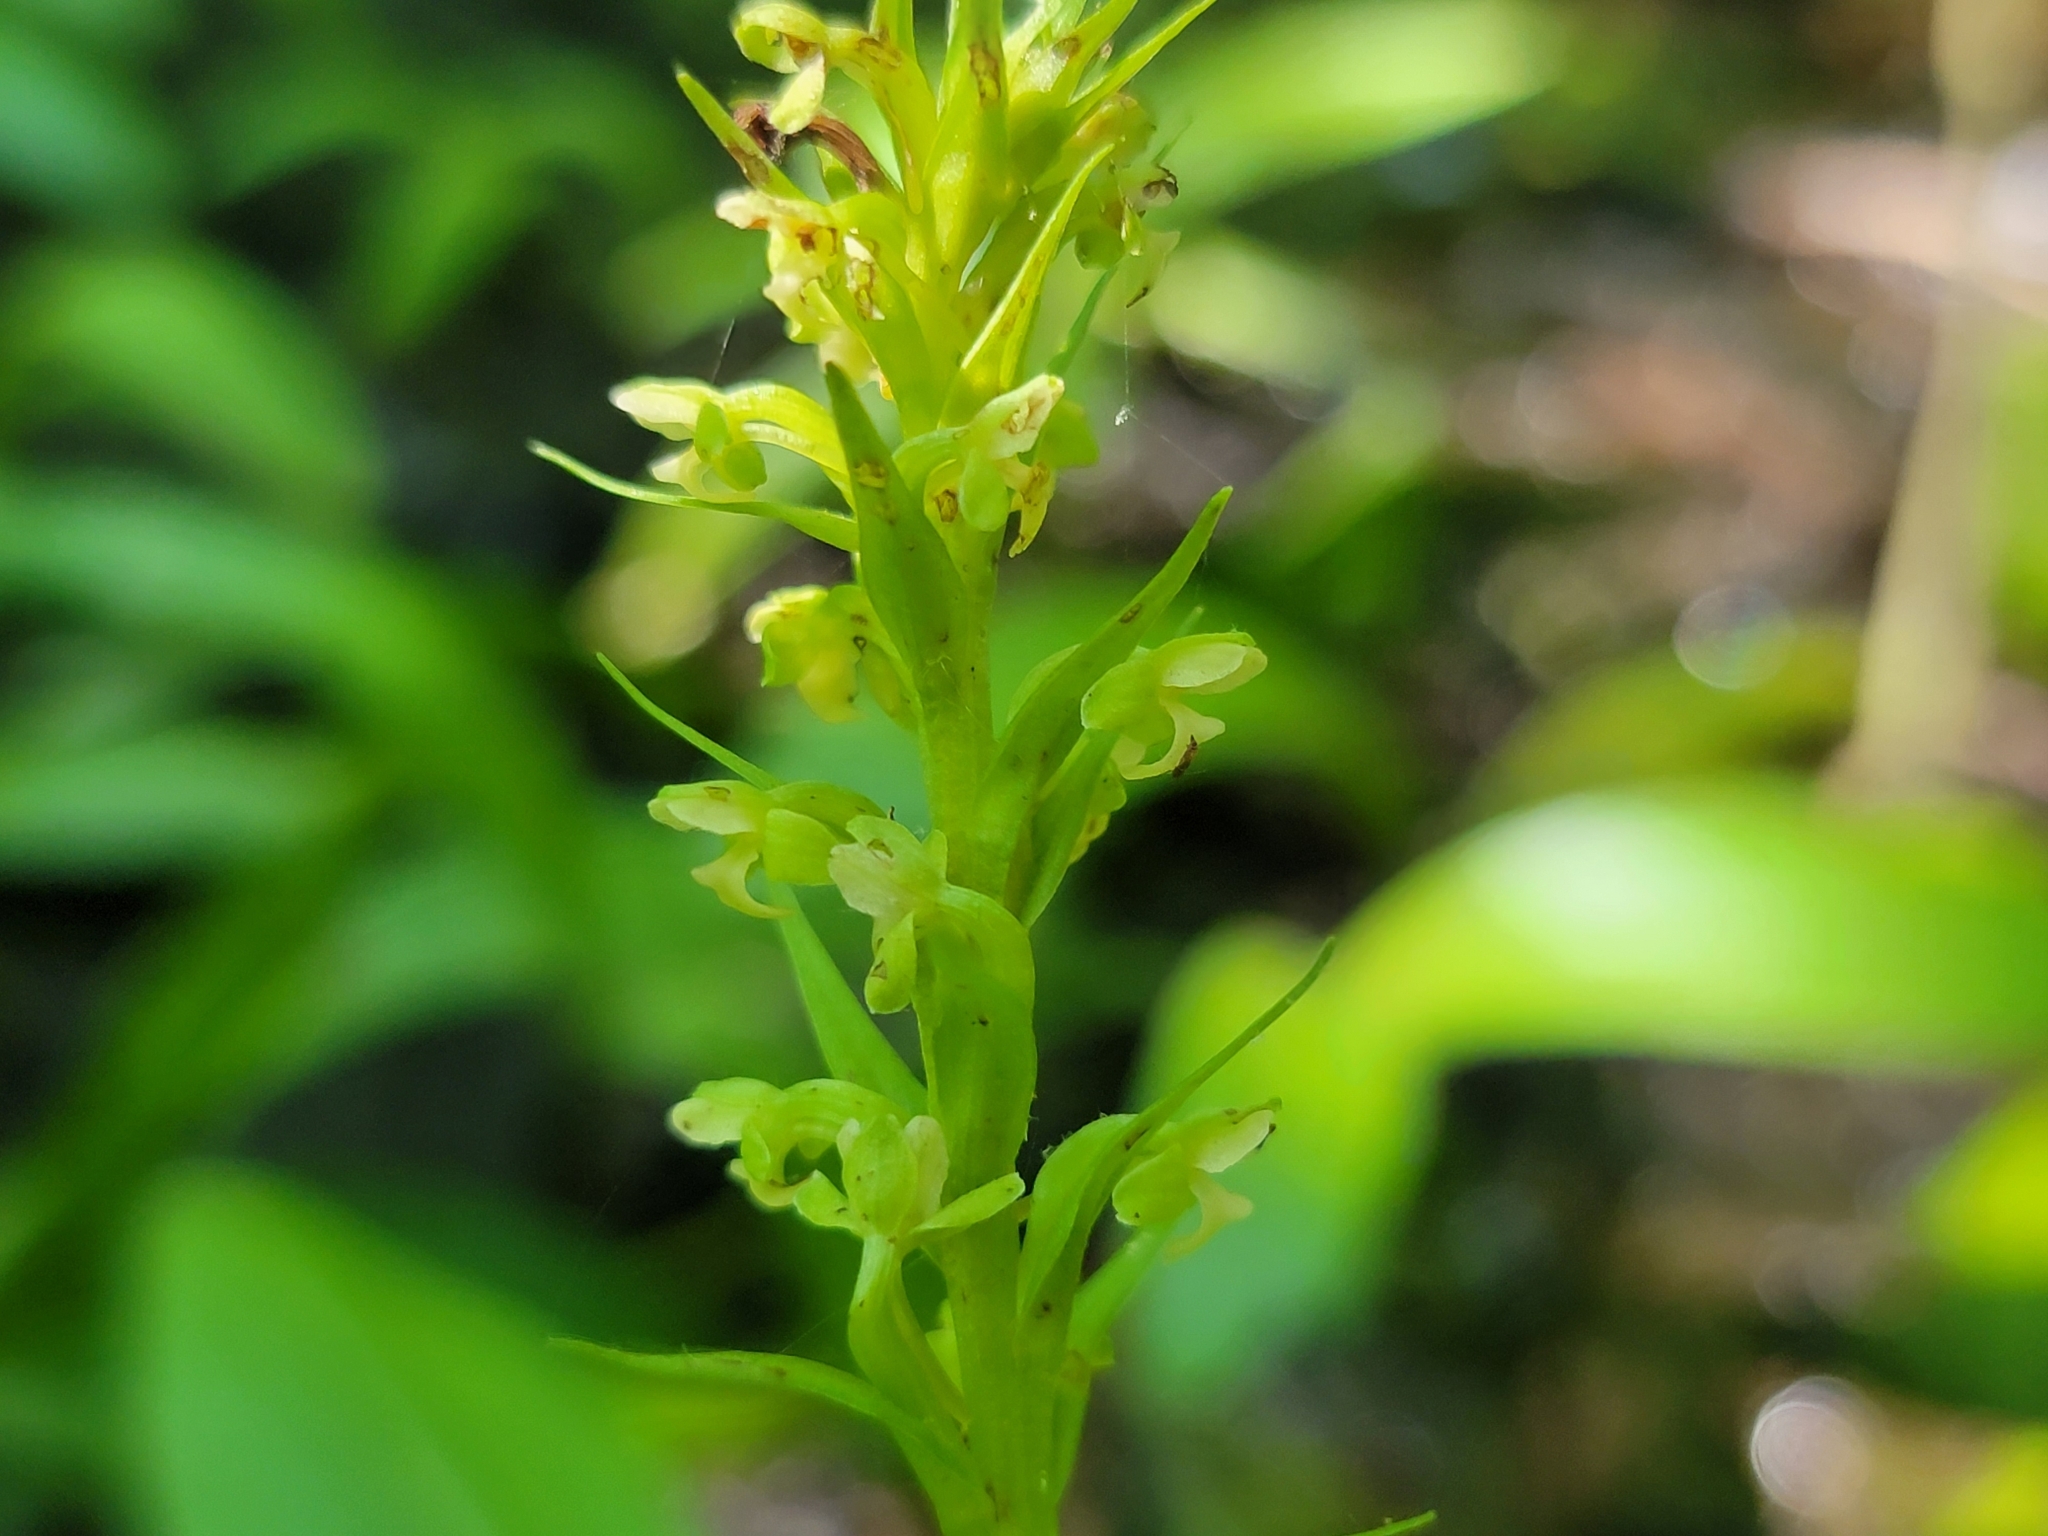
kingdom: Plantae
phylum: Tracheophyta
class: Liliopsida
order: Asparagales
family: Orchidaceae
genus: Platanthera
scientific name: Platanthera flava
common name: Gypsy-spikes
